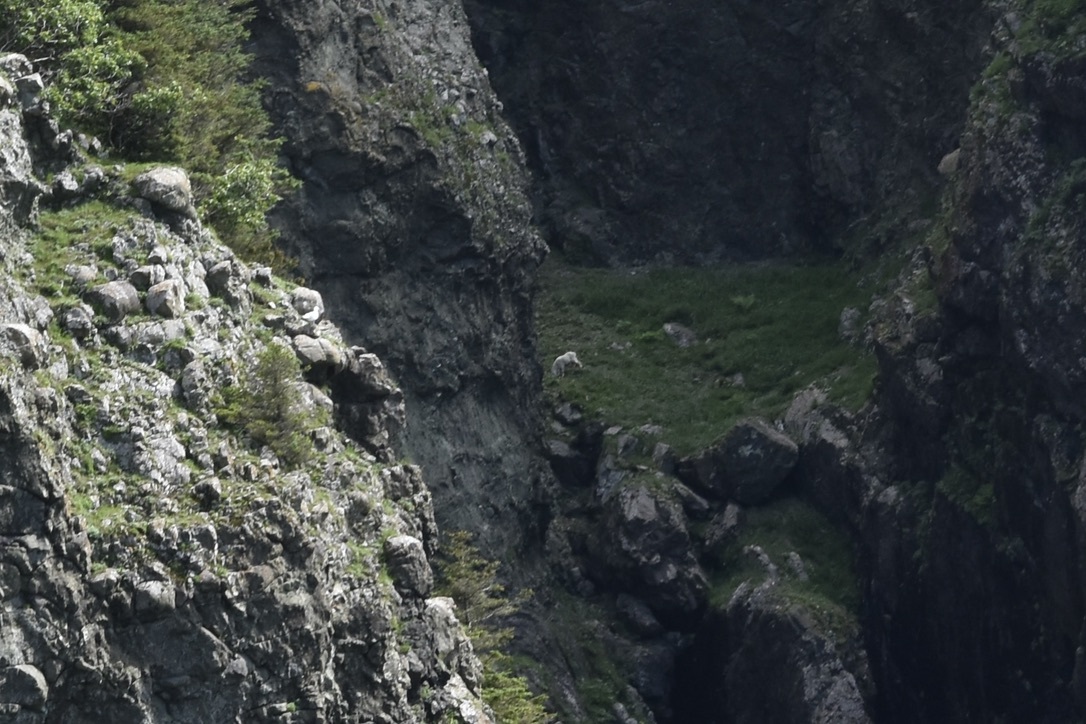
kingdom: Animalia
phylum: Chordata
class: Mammalia
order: Artiodactyla
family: Bovidae
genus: Oreamnos
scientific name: Oreamnos americanus
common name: Mountain goat
